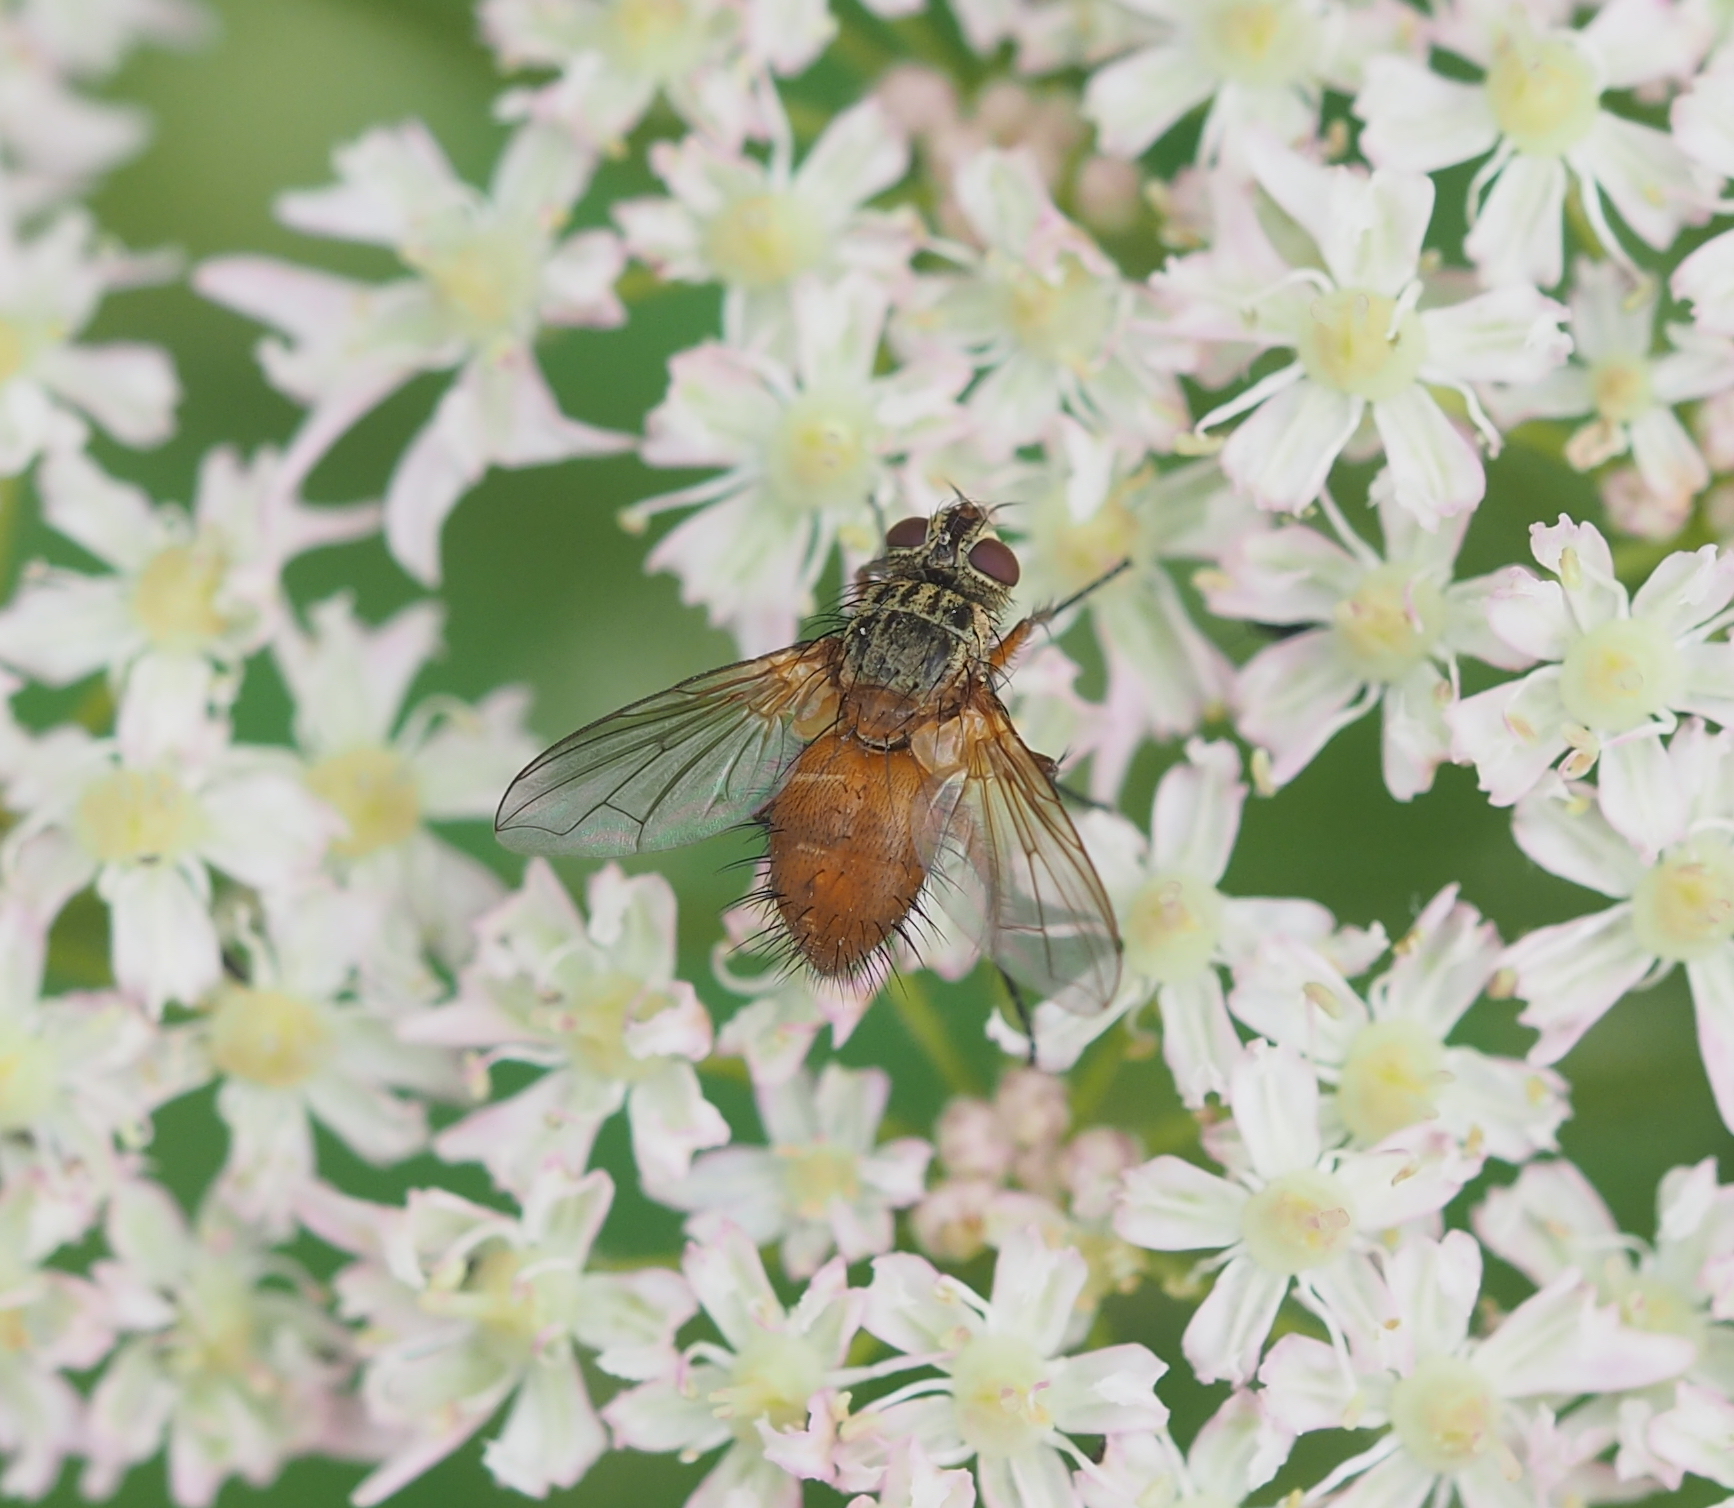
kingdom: Animalia
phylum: Arthropoda
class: Insecta
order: Diptera
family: Tachinidae
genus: Hyalurgus
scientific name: Hyalurgus lucidus
